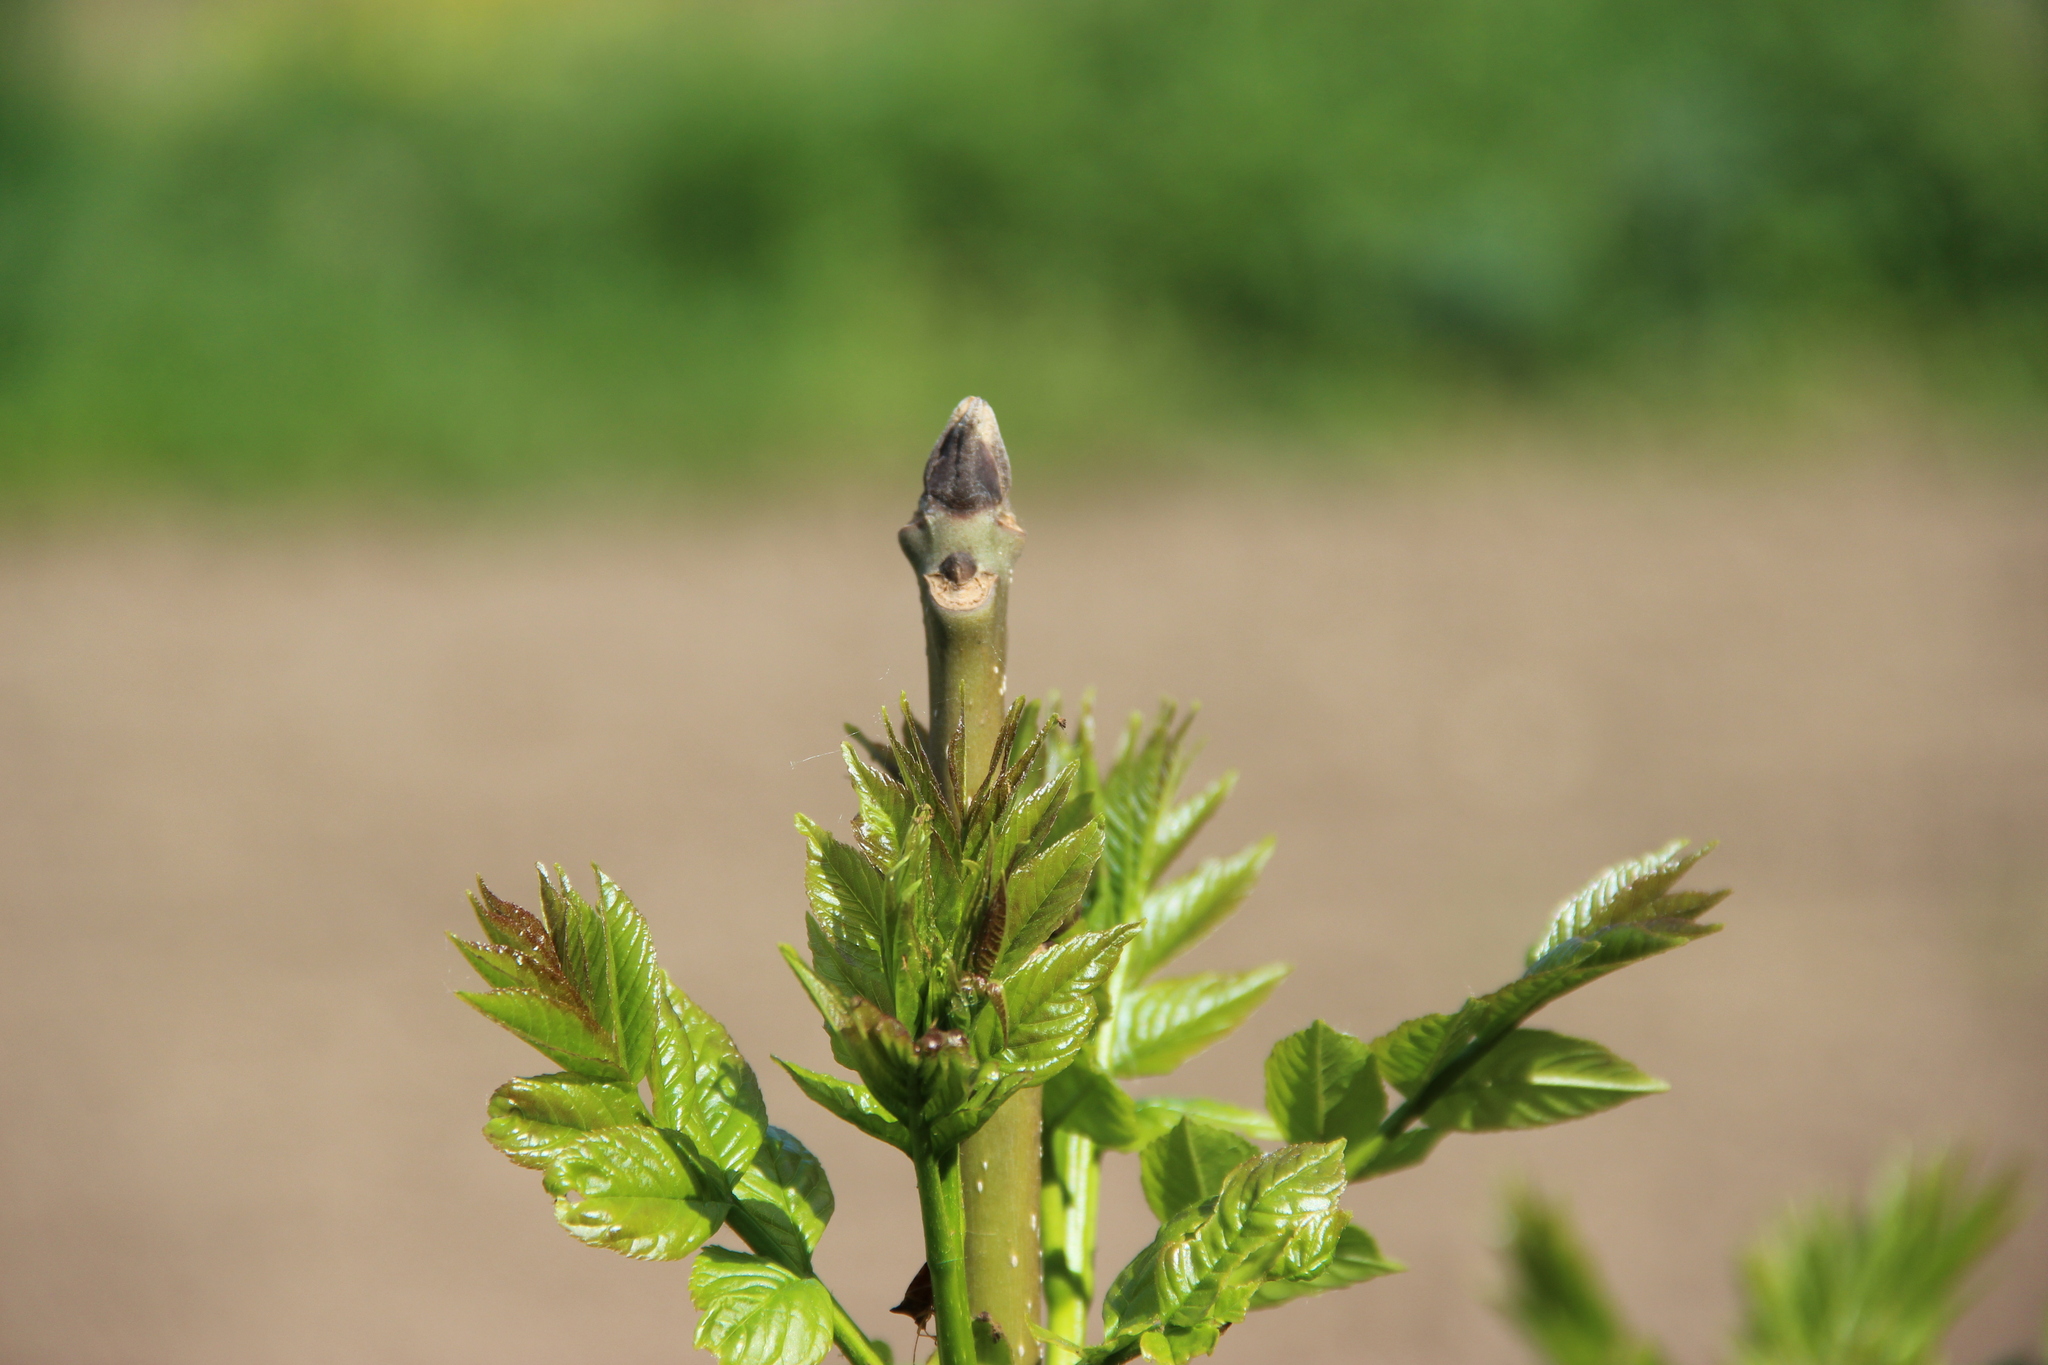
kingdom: Plantae
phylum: Tracheophyta
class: Magnoliopsida
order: Lamiales
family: Oleaceae
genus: Fraxinus
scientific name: Fraxinus excelsior
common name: European ash
